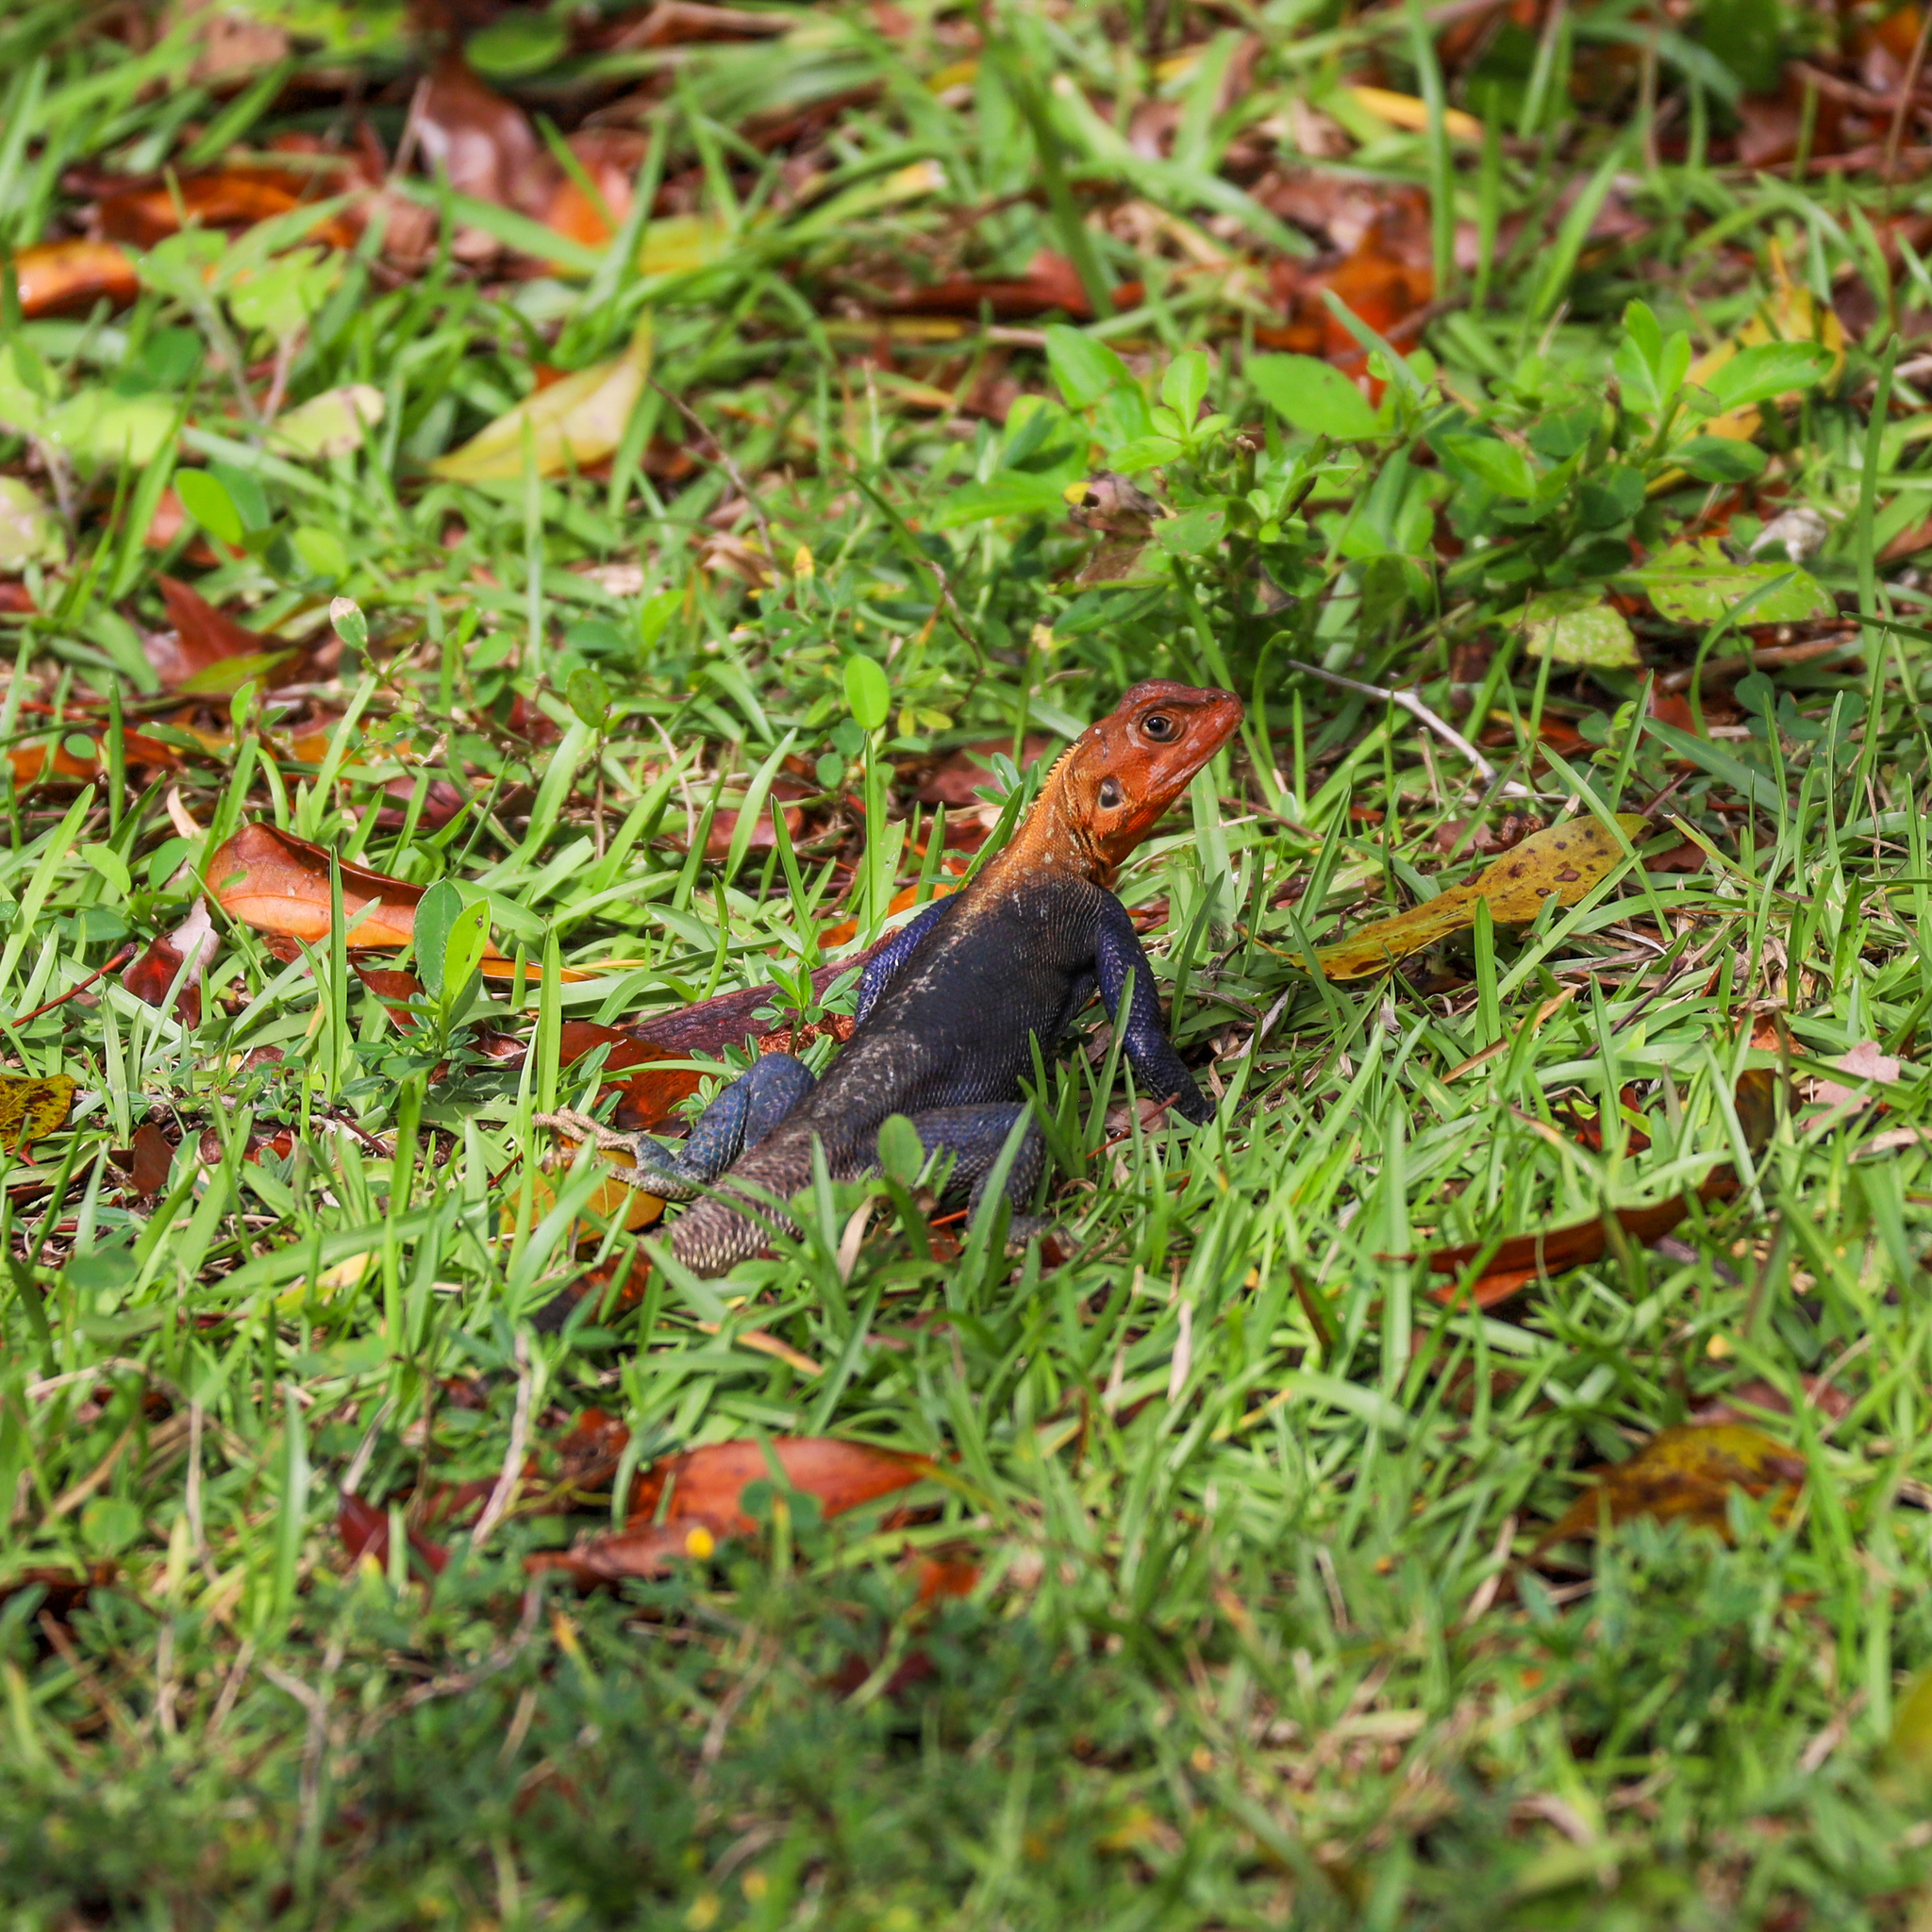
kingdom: Animalia
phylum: Chordata
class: Squamata
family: Agamidae
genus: Agama
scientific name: Agama picticauda
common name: Red-headed agama
